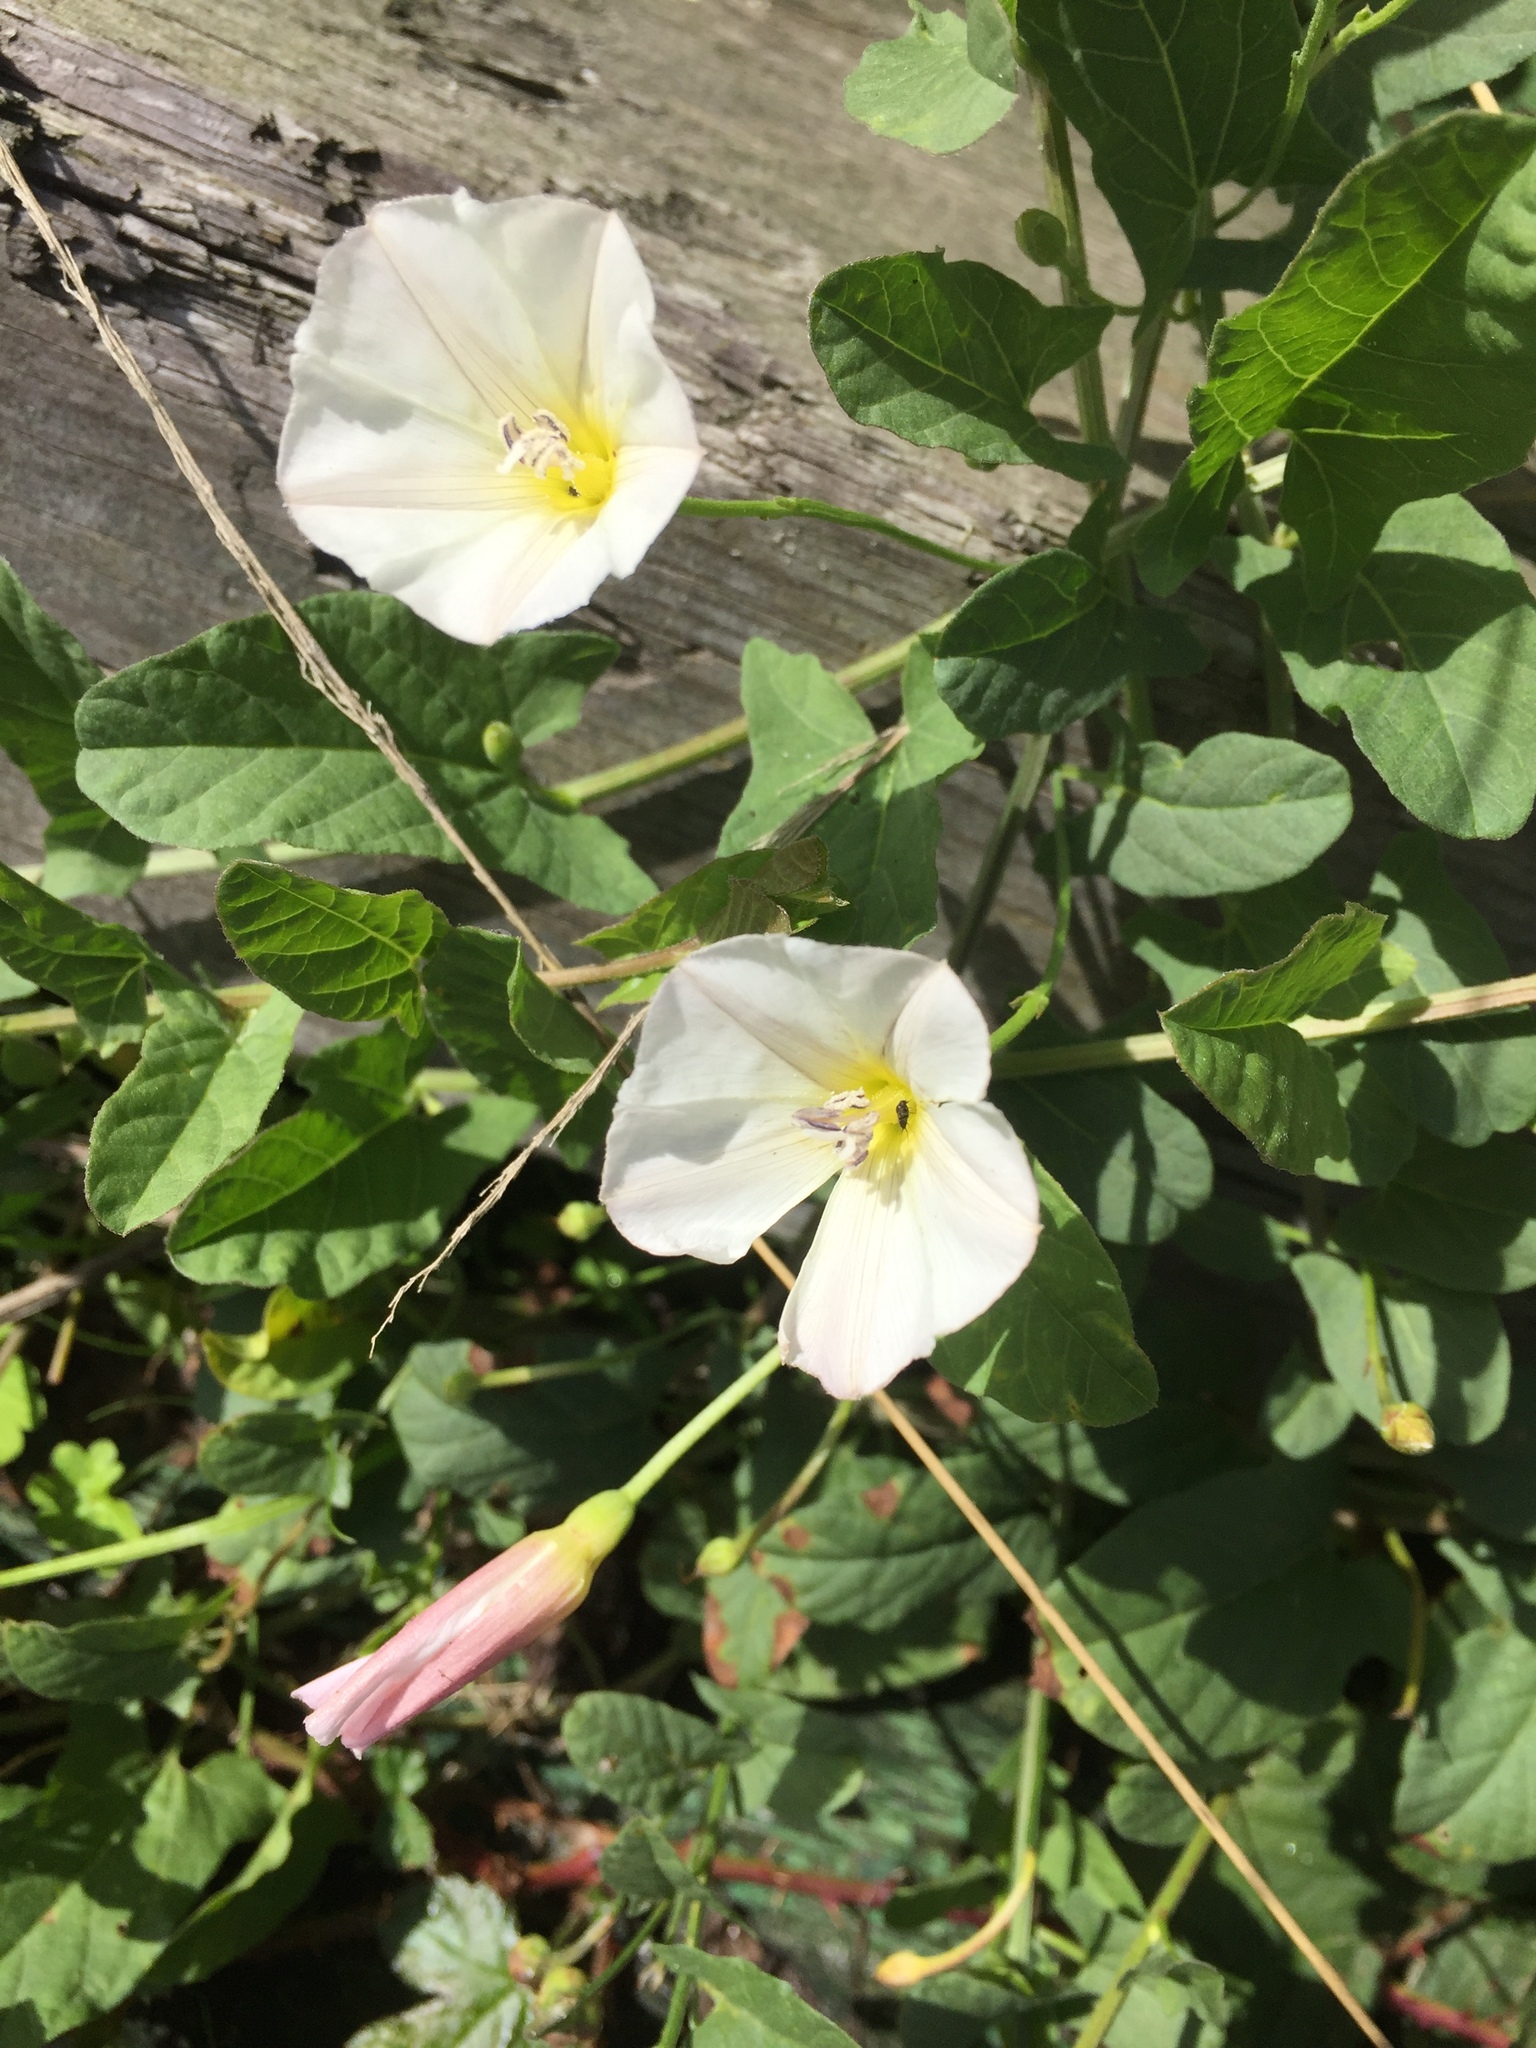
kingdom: Plantae
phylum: Tracheophyta
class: Magnoliopsida
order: Solanales
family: Convolvulaceae
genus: Convolvulus
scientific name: Convolvulus arvensis
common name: Field bindweed
